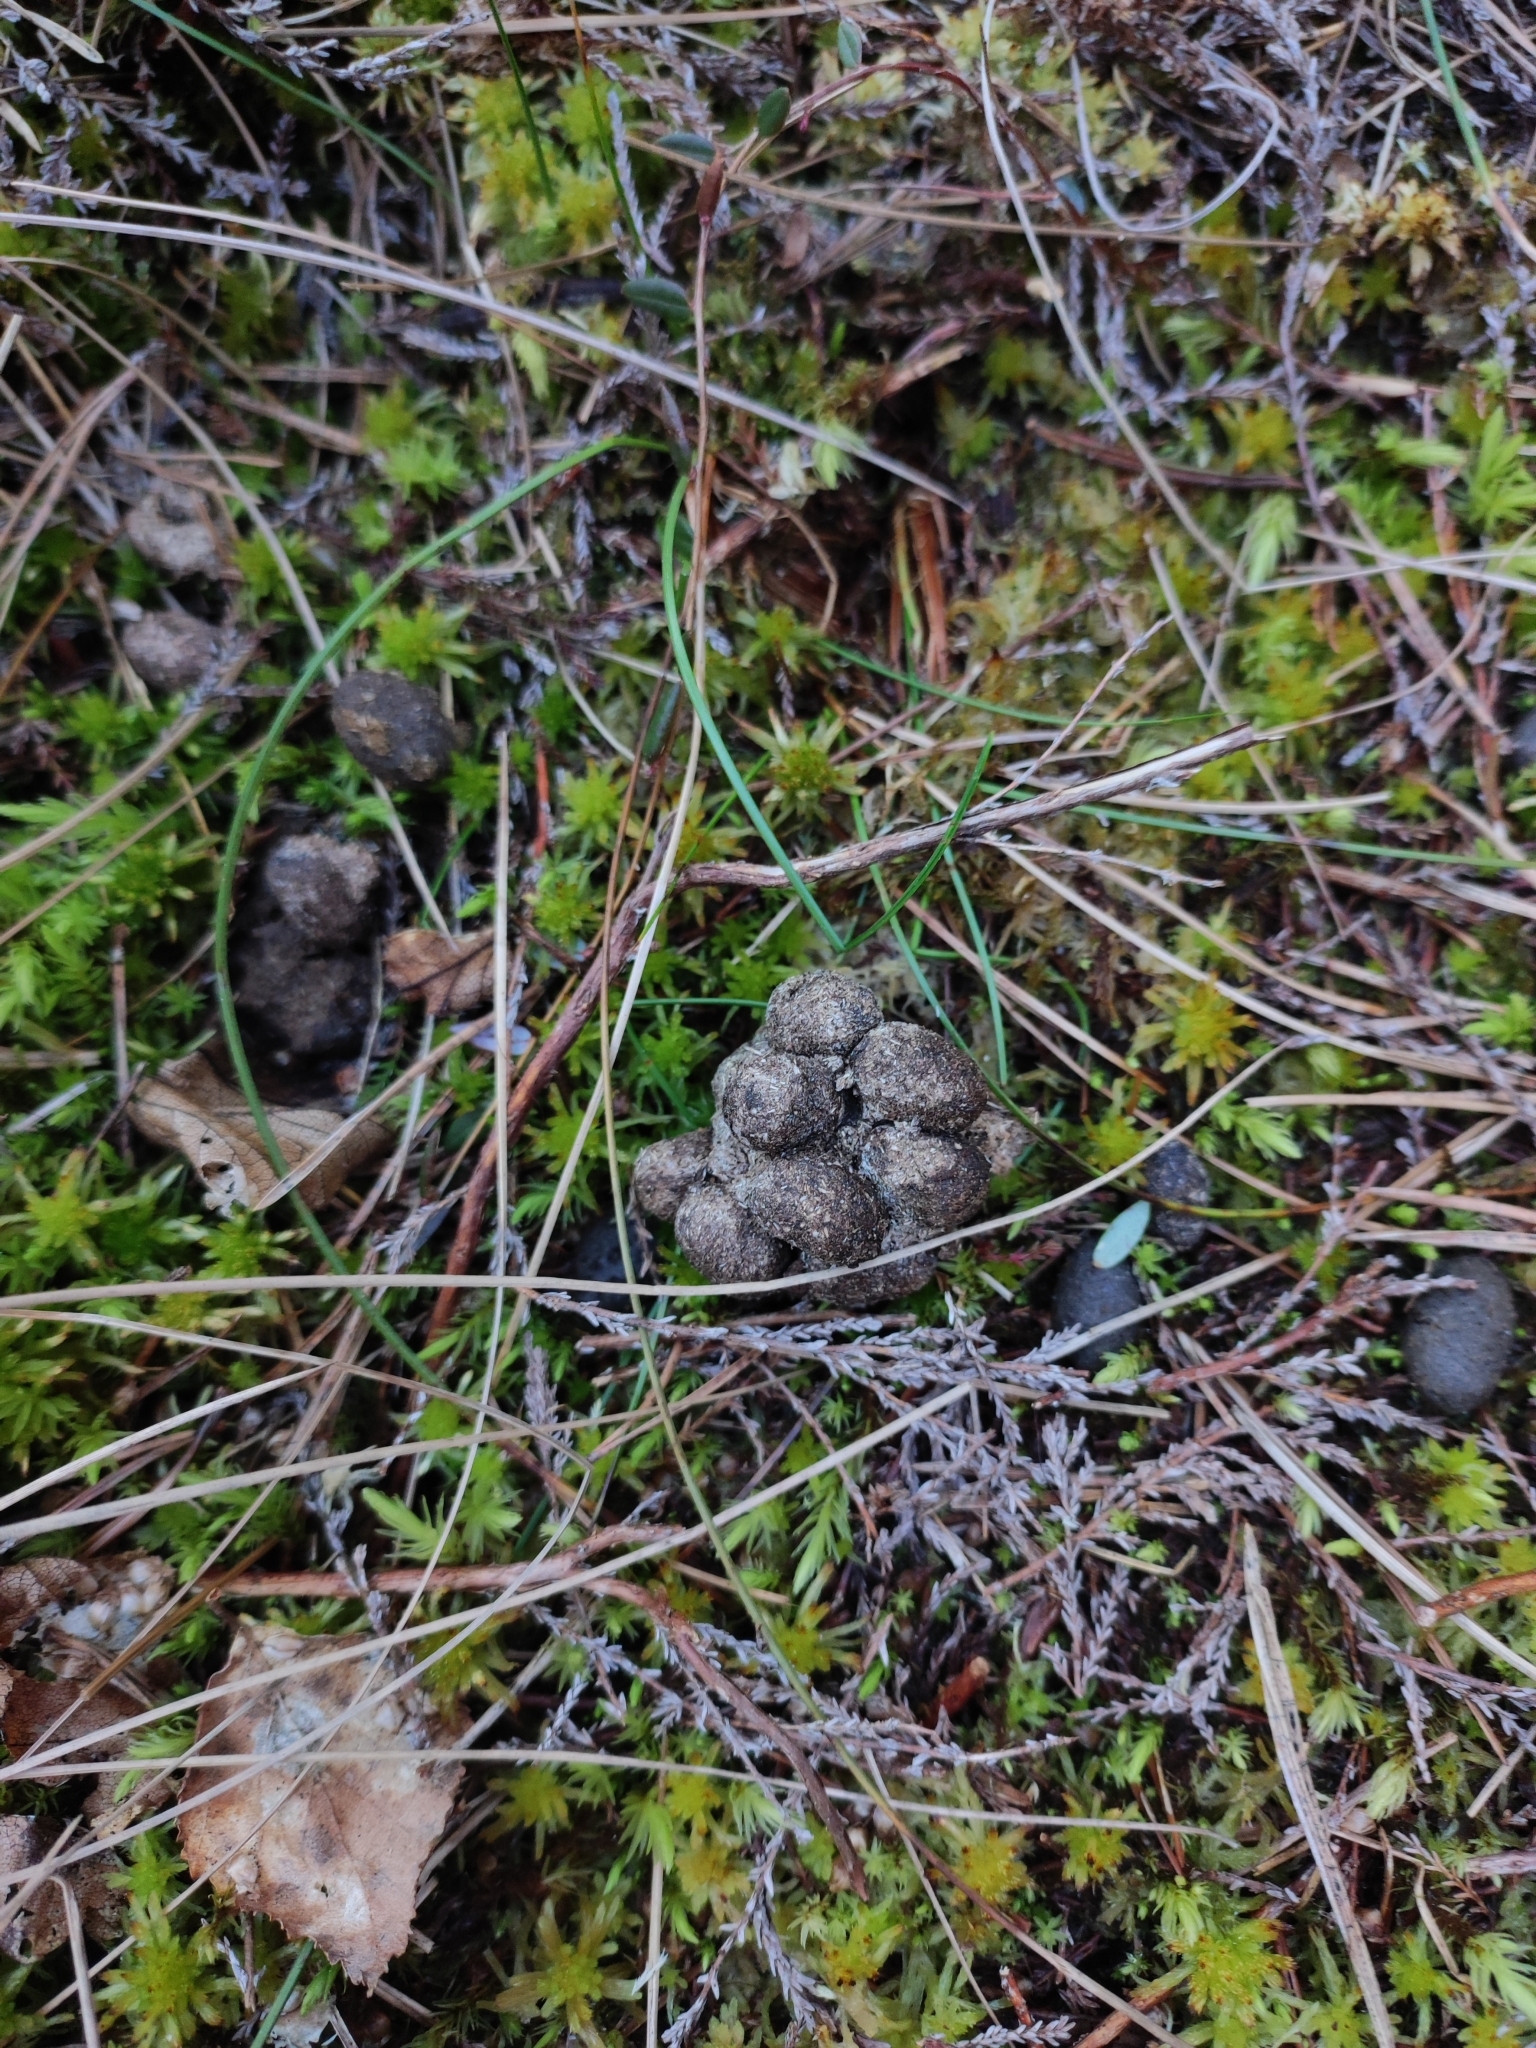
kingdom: Animalia
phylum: Chordata
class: Mammalia
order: Artiodactyla
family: Suidae
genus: Sus
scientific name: Sus scrofa
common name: Wild boar
